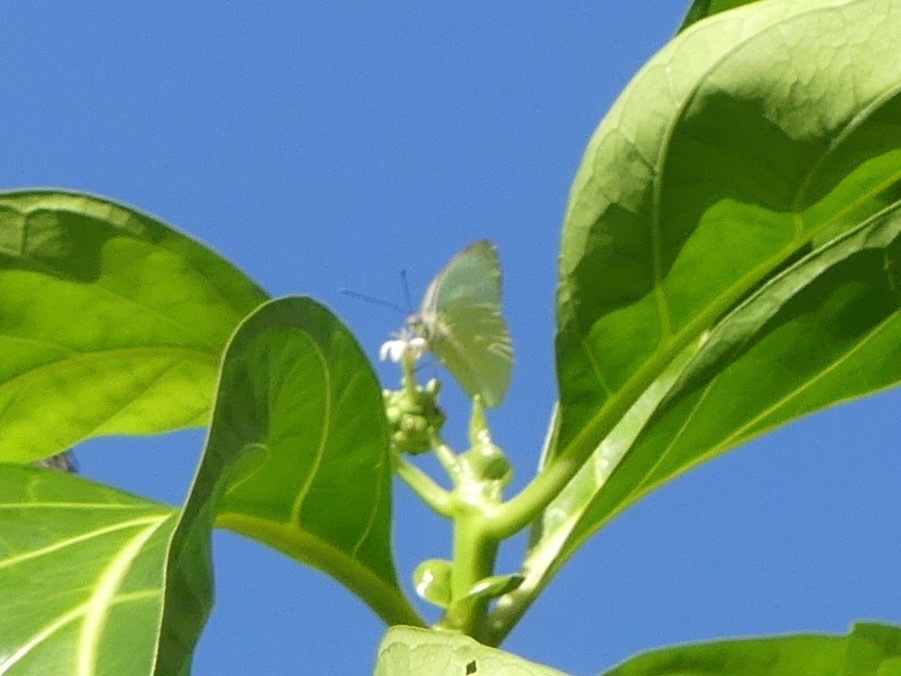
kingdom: Animalia
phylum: Arthropoda
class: Insecta
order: Lepidoptera
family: Pieridae
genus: Ascia
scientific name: Ascia monuste
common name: Great southern white
